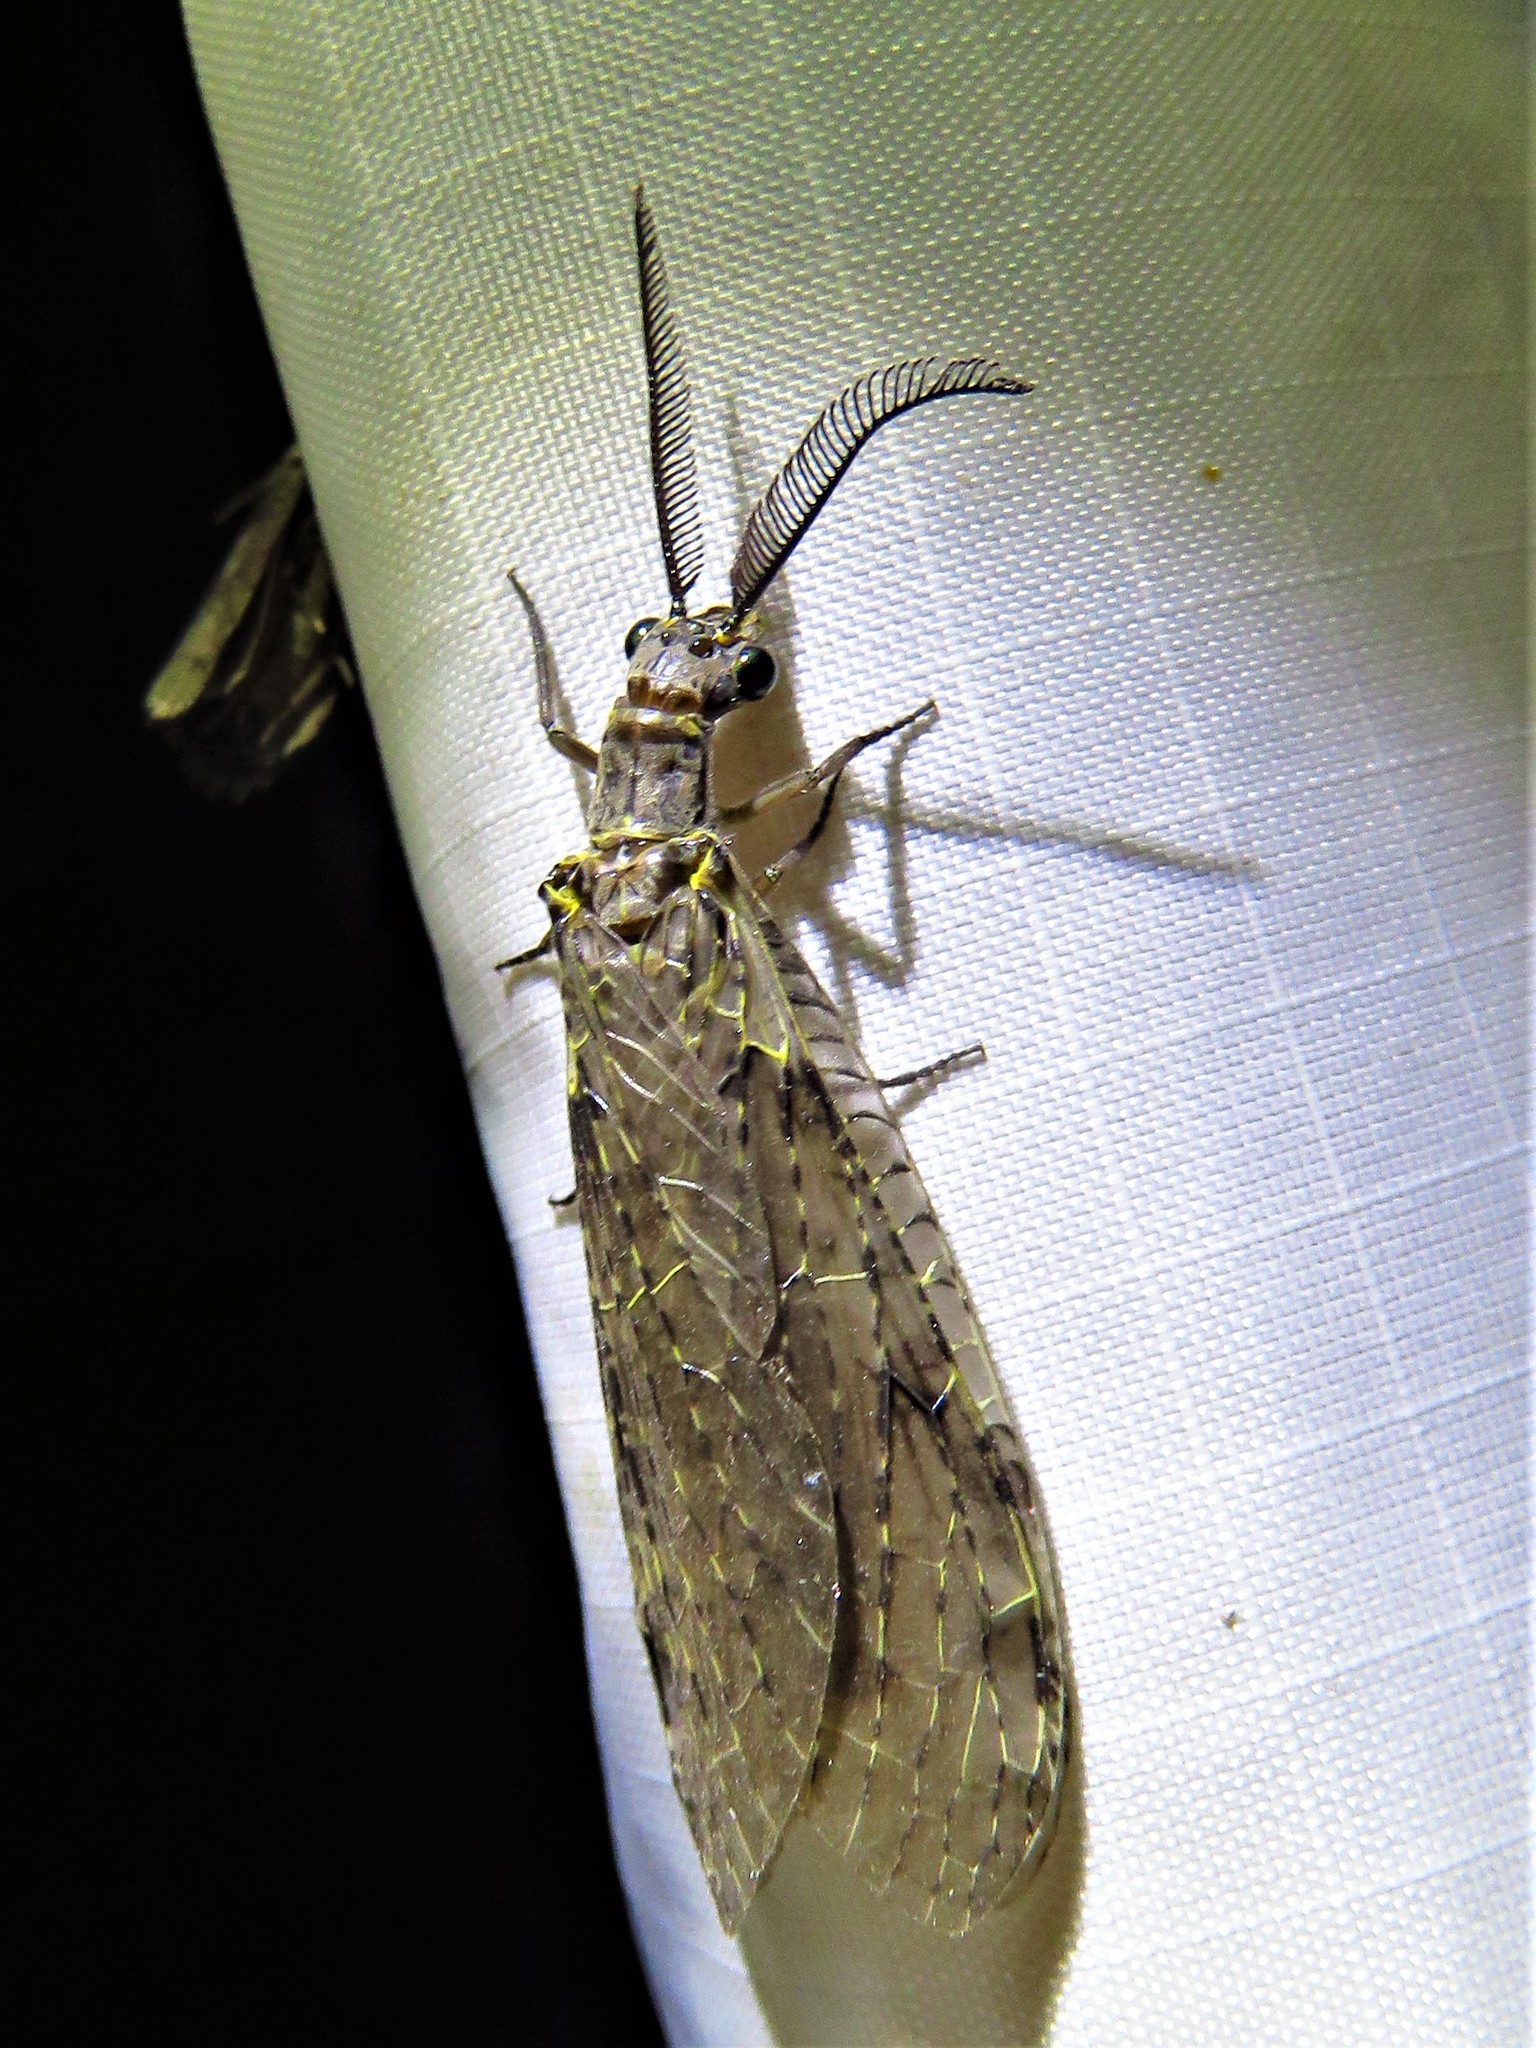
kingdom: Animalia
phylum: Arthropoda
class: Insecta
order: Megaloptera
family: Corydalidae
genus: Chauliodes
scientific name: Chauliodes rastricornis
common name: Spring fishfly
